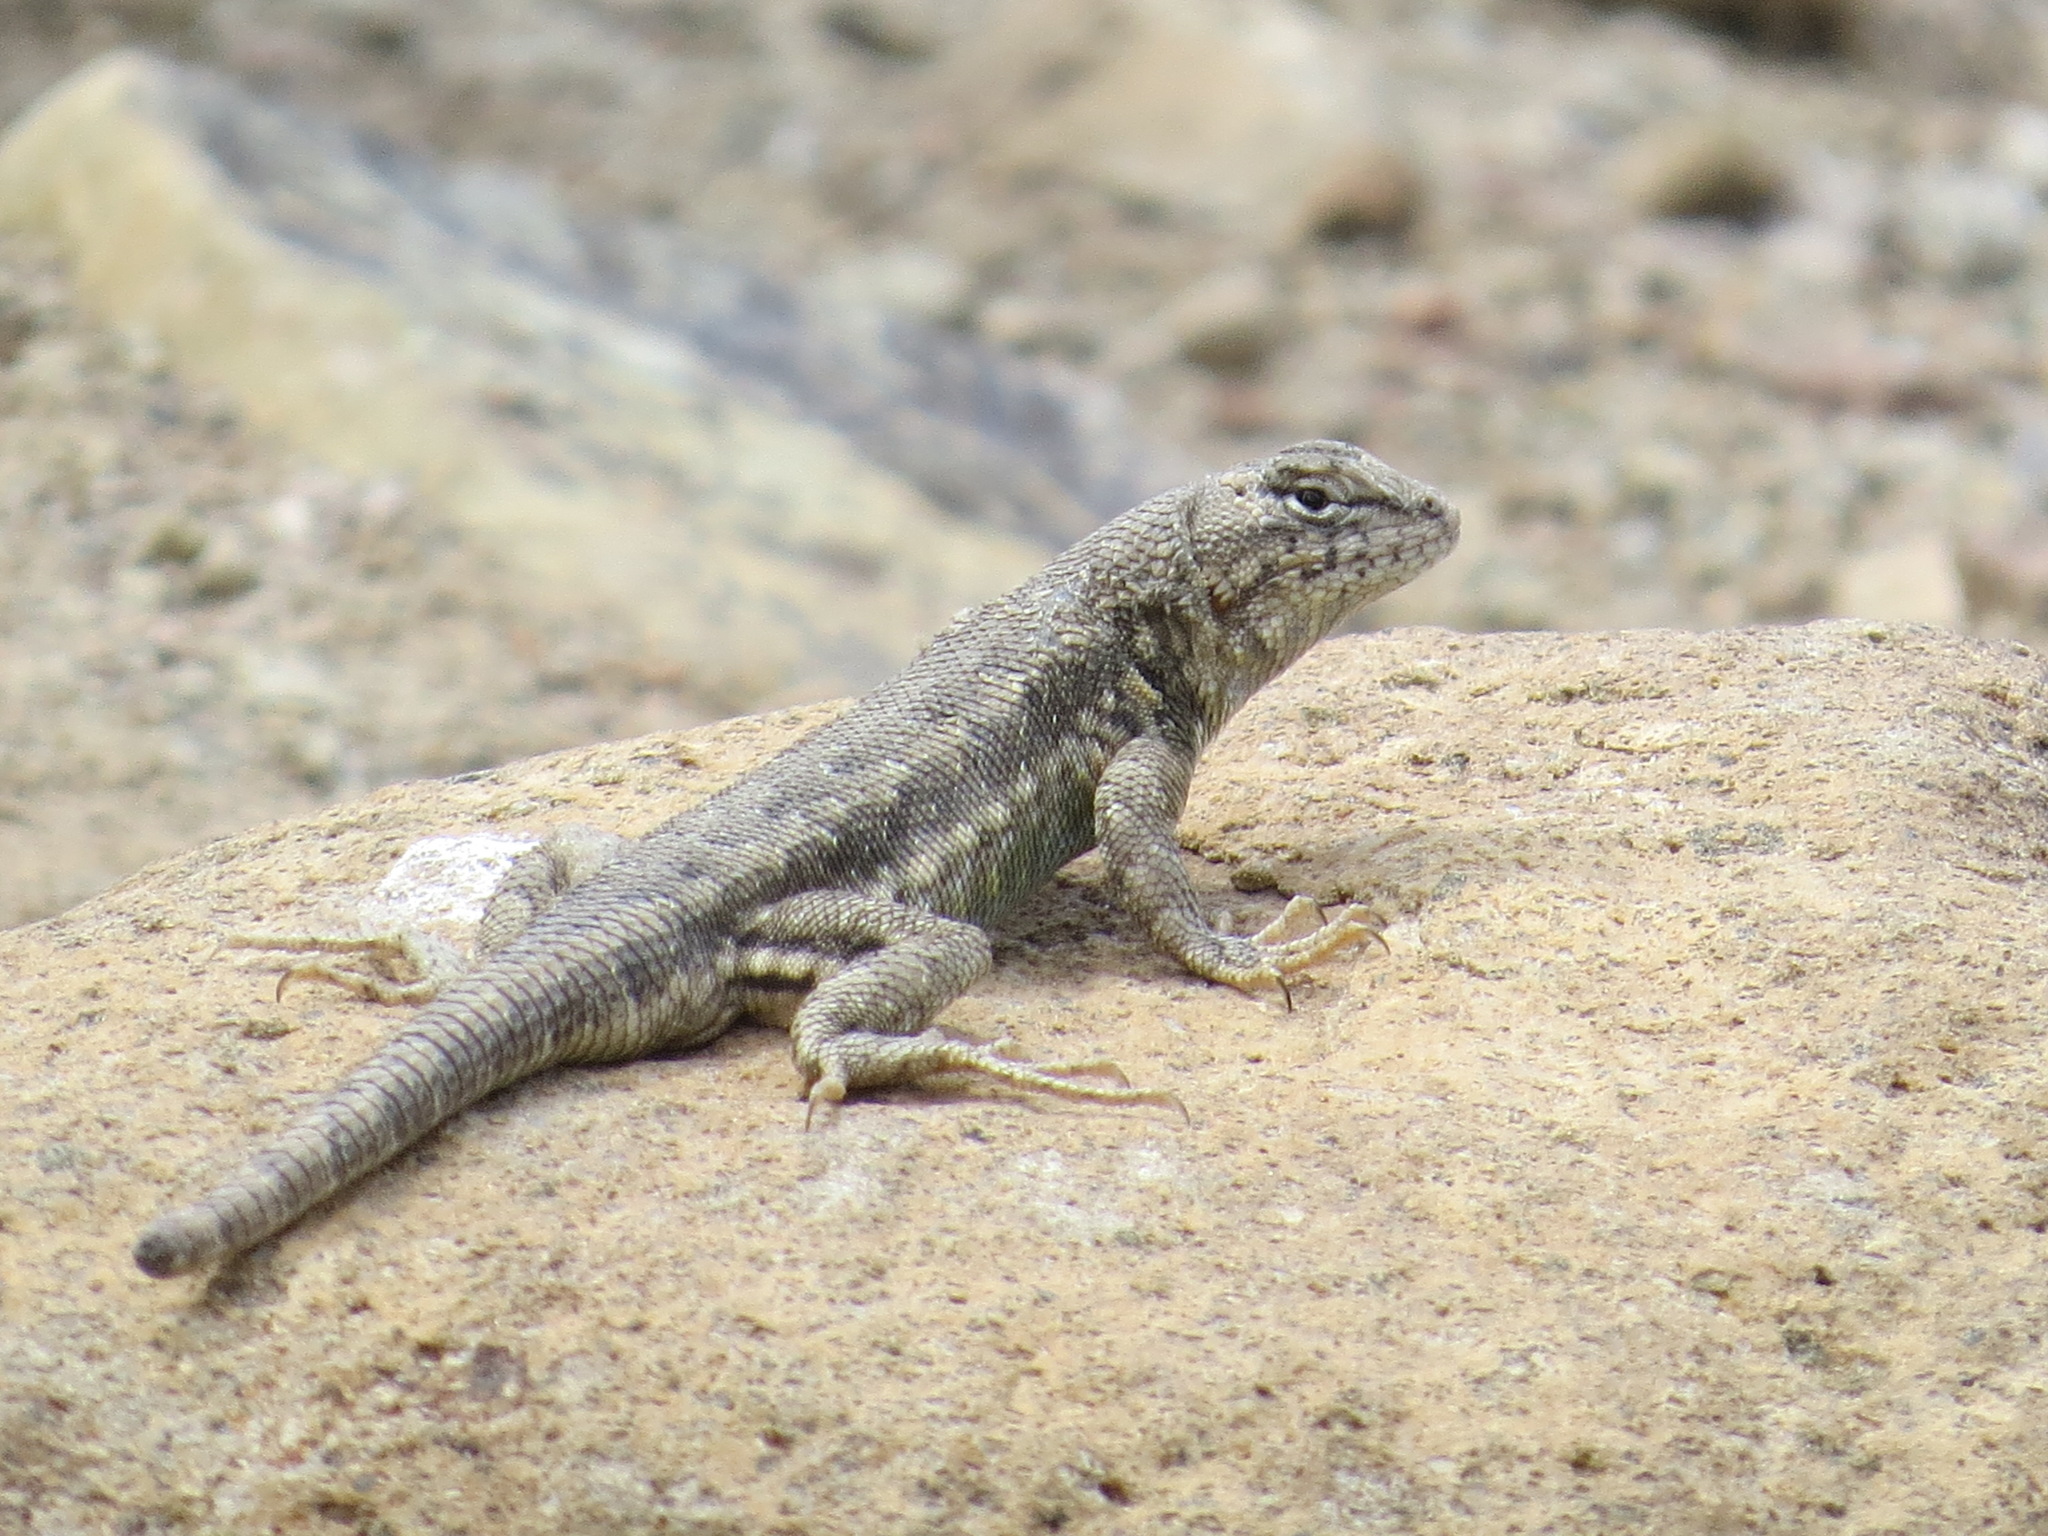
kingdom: Animalia
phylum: Chordata
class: Squamata
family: Phrynosomatidae
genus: Sceloporus
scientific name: Sceloporus graciosus
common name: Sagebrush lizard
